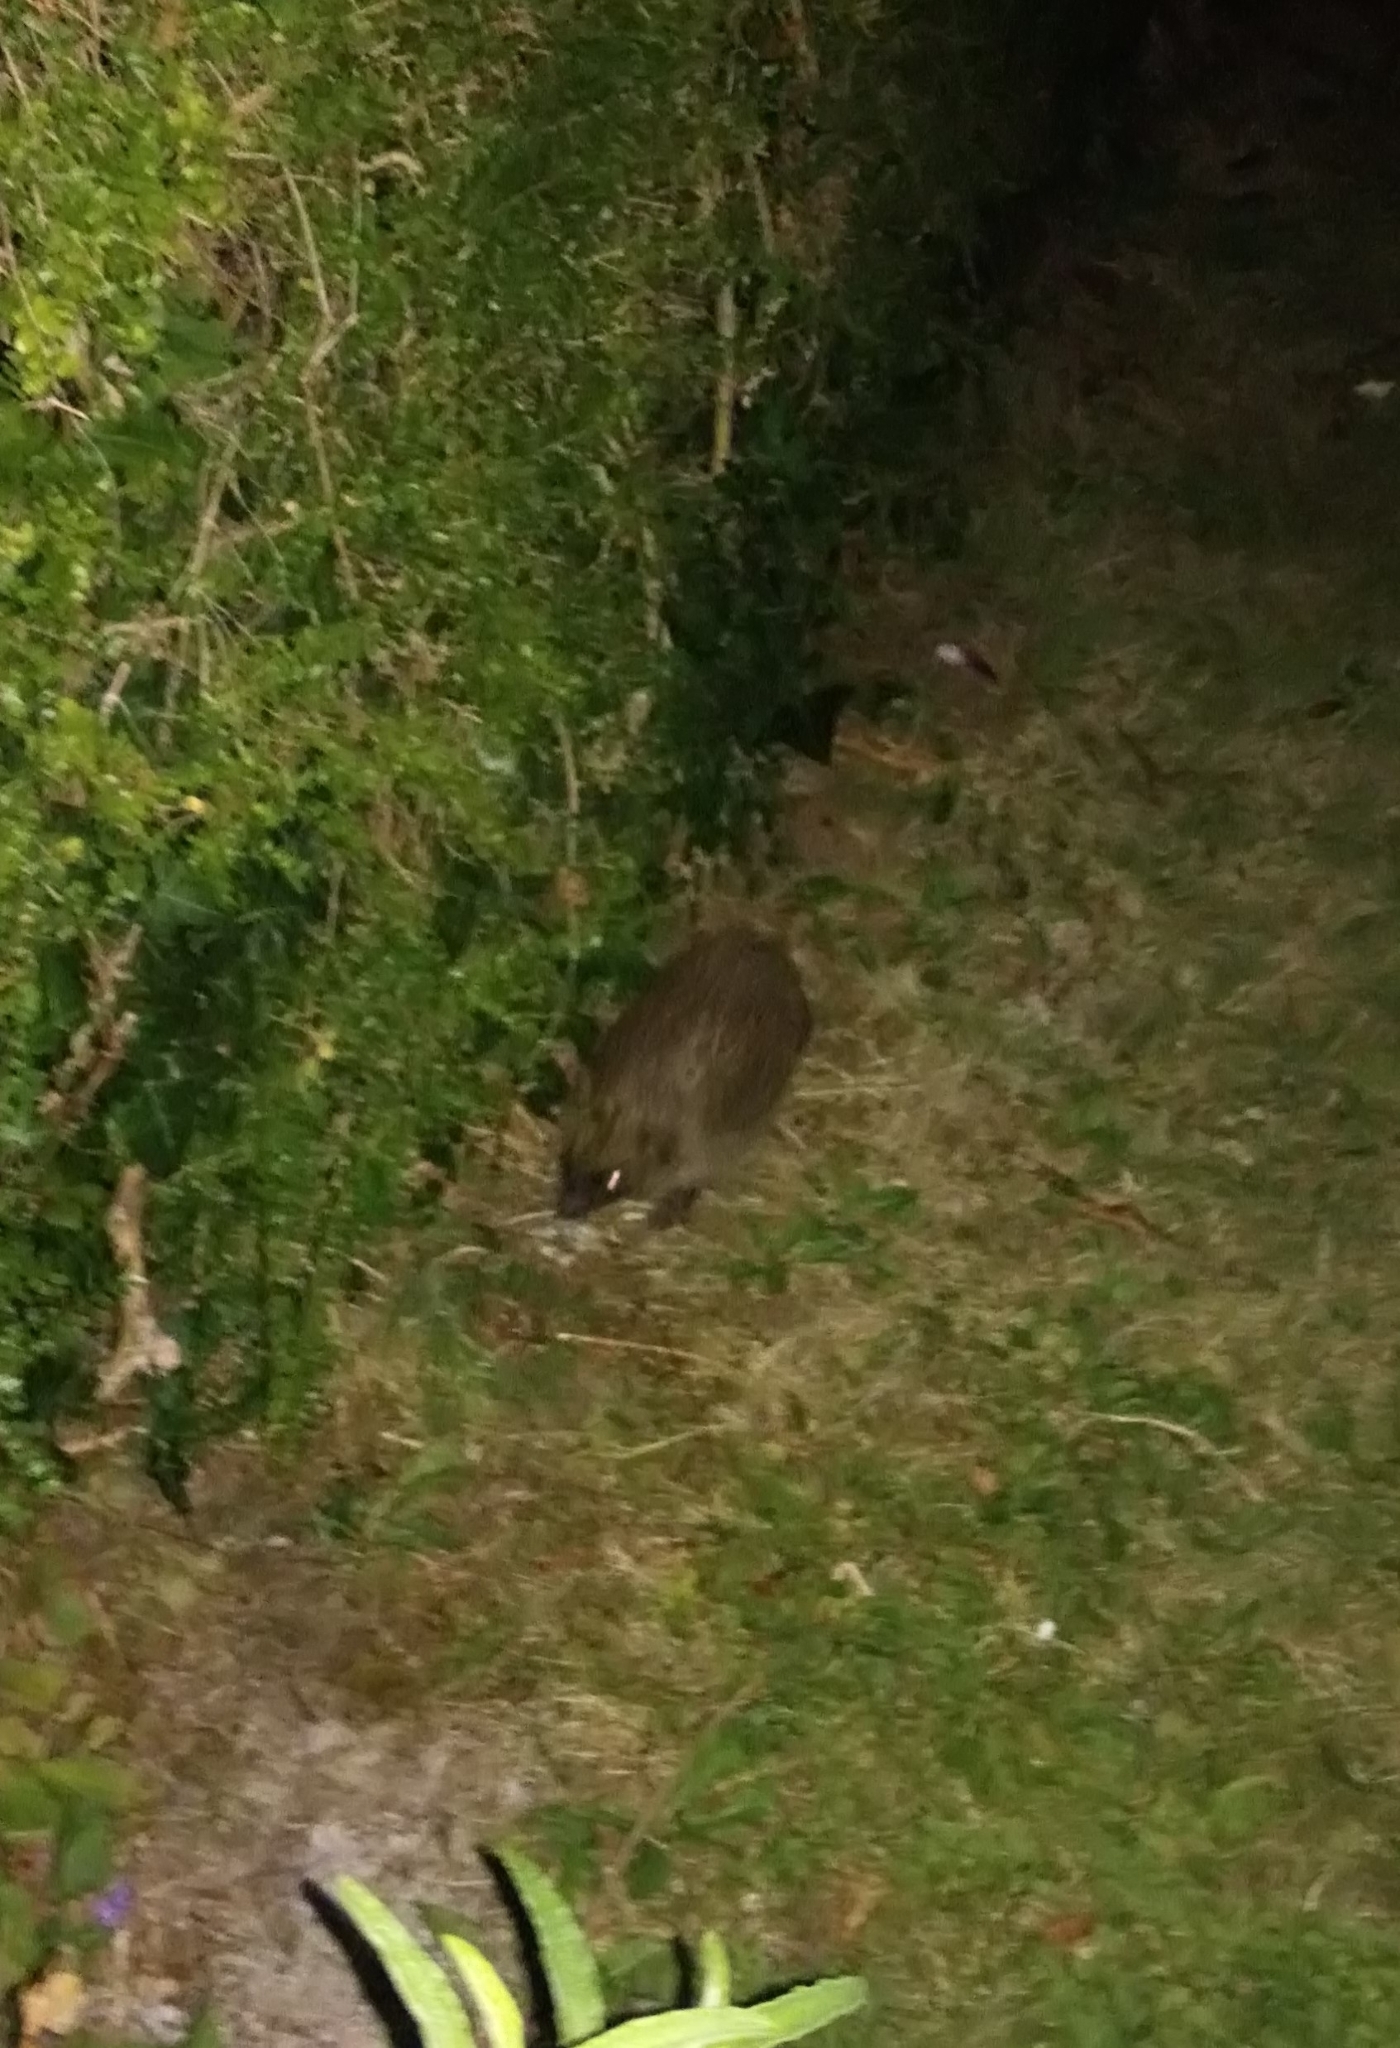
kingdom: Animalia
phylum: Chordata
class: Mammalia
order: Erinaceomorpha
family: Erinaceidae
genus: Erinaceus
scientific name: Erinaceus europaeus
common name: West european hedgehog
